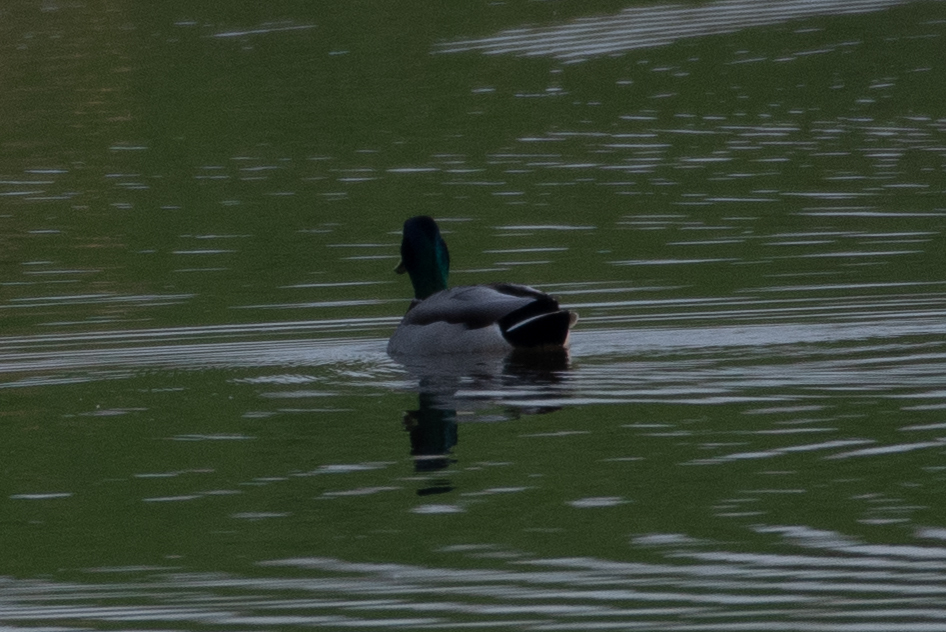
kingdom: Animalia
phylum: Chordata
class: Aves
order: Anseriformes
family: Anatidae
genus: Anas
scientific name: Anas platyrhynchos
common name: Mallard
